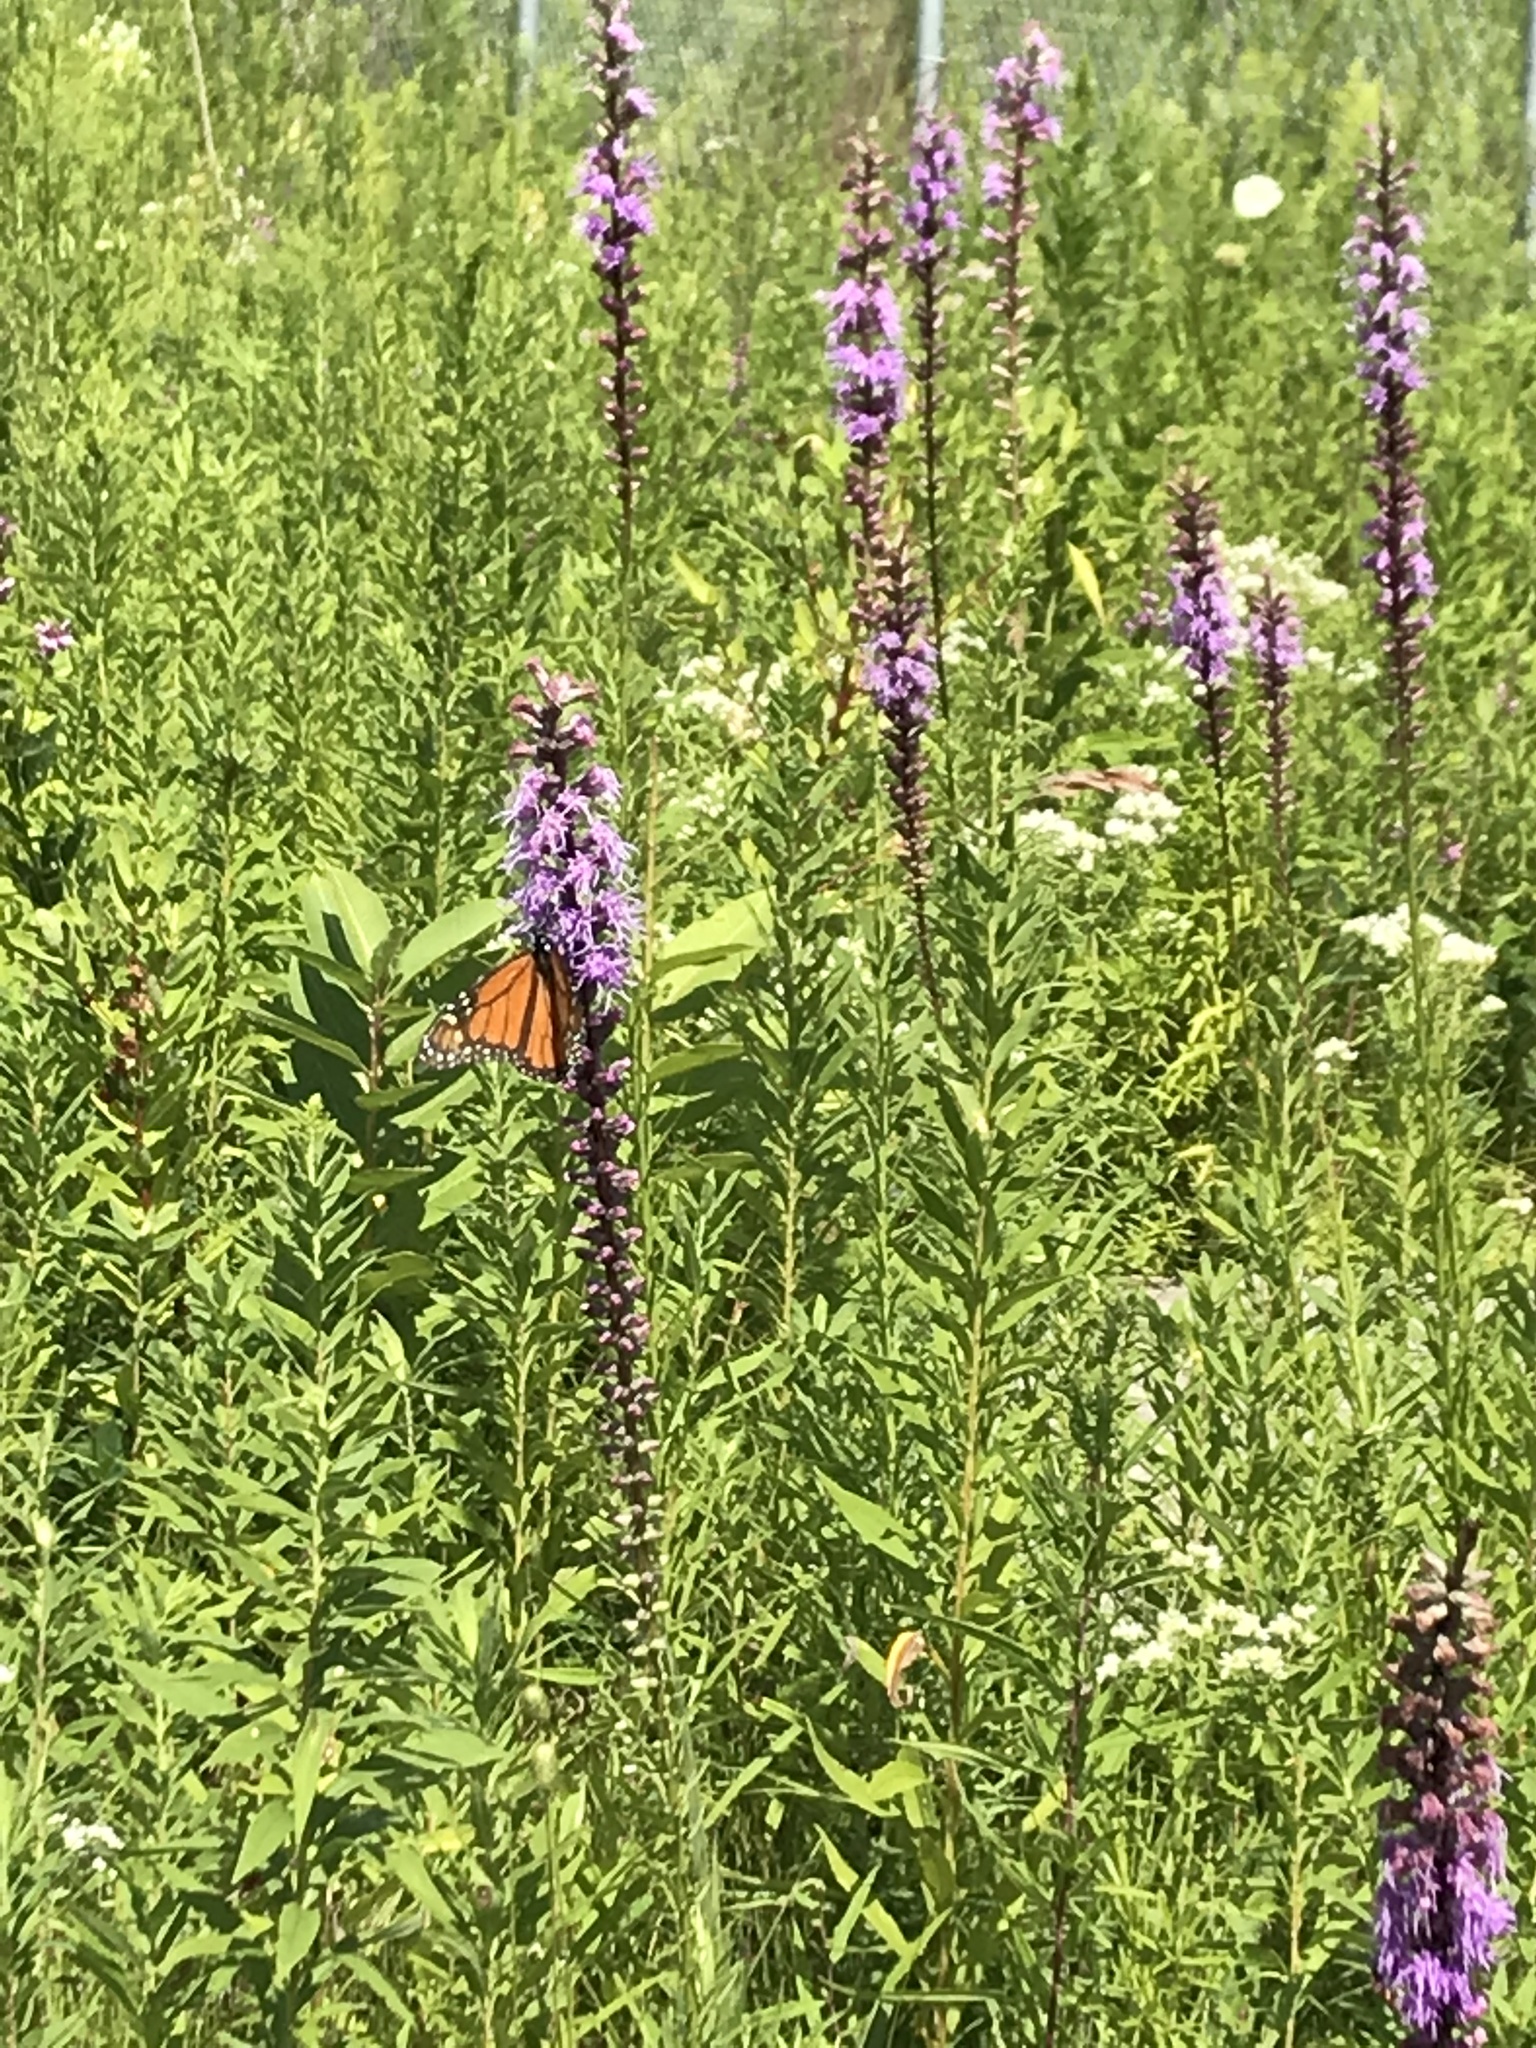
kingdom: Plantae
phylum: Tracheophyta
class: Magnoliopsida
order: Asterales
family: Asteraceae
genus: Liatris
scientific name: Liatris spicata
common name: Florist gayfeather
